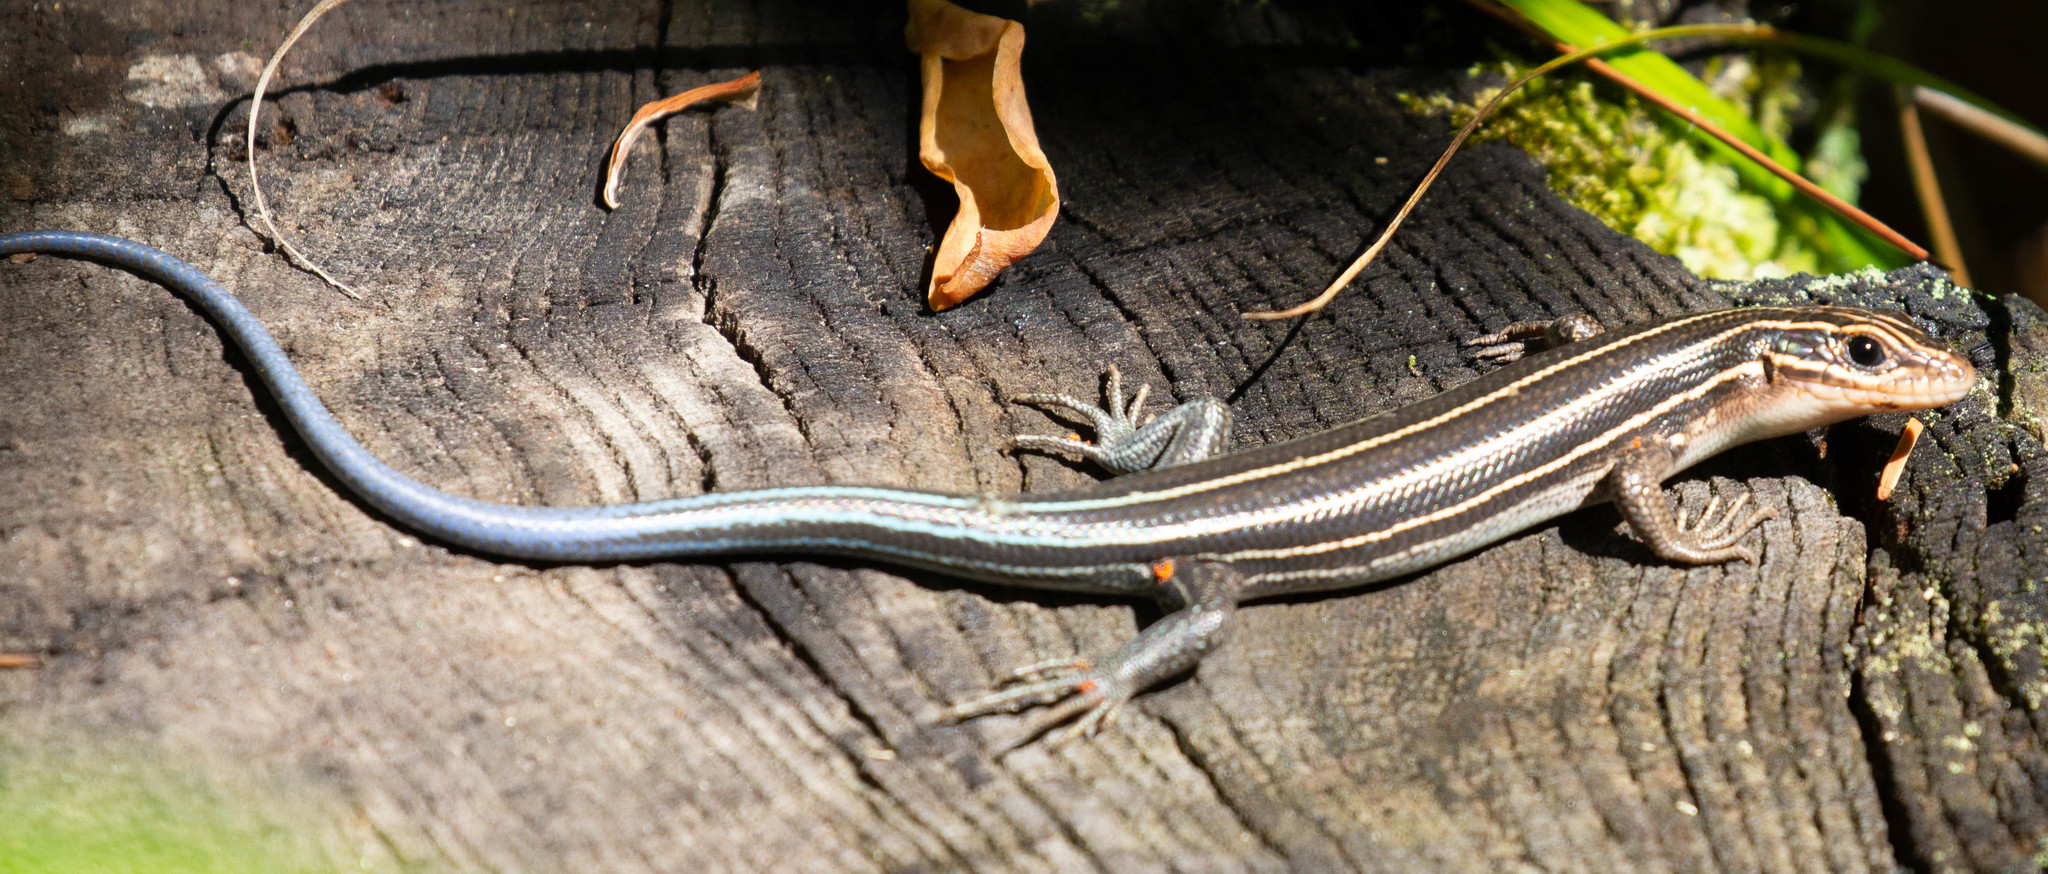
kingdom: Animalia
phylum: Chordata
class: Squamata
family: Scincidae
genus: Plestiodon
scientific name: Plestiodon laticeps
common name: Broadhead skink
